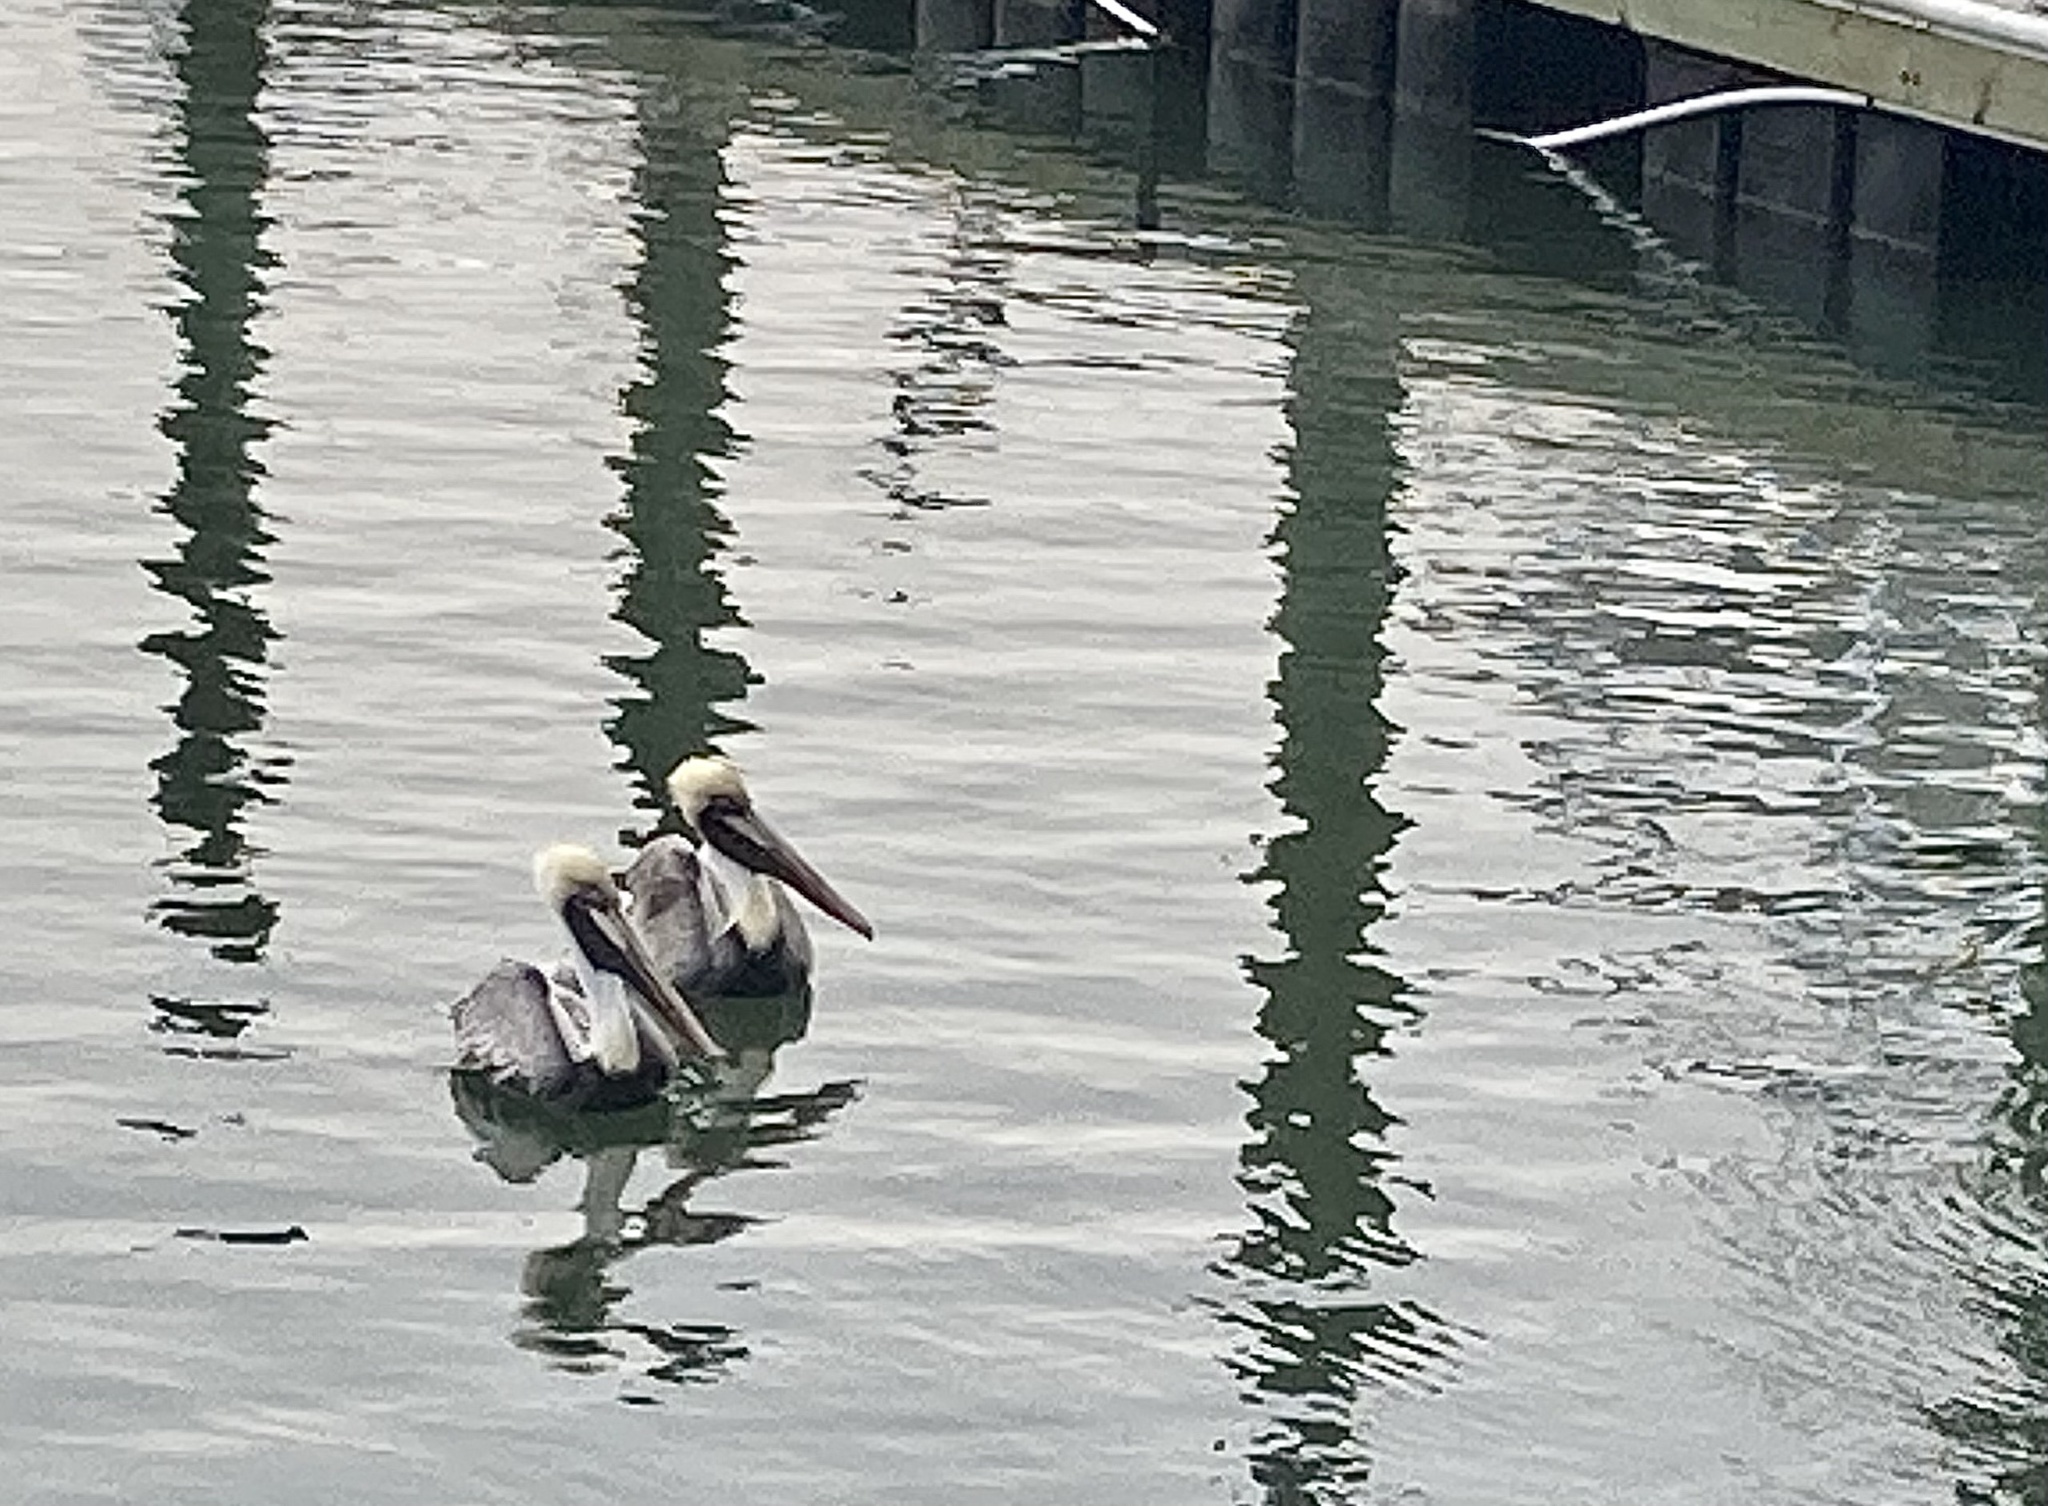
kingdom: Animalia
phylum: Chordata
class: Aves
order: Pelecaniformes
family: Pelecanidae
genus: Pelecanus
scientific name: Pelecanus occidentalis
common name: Brown pelican
